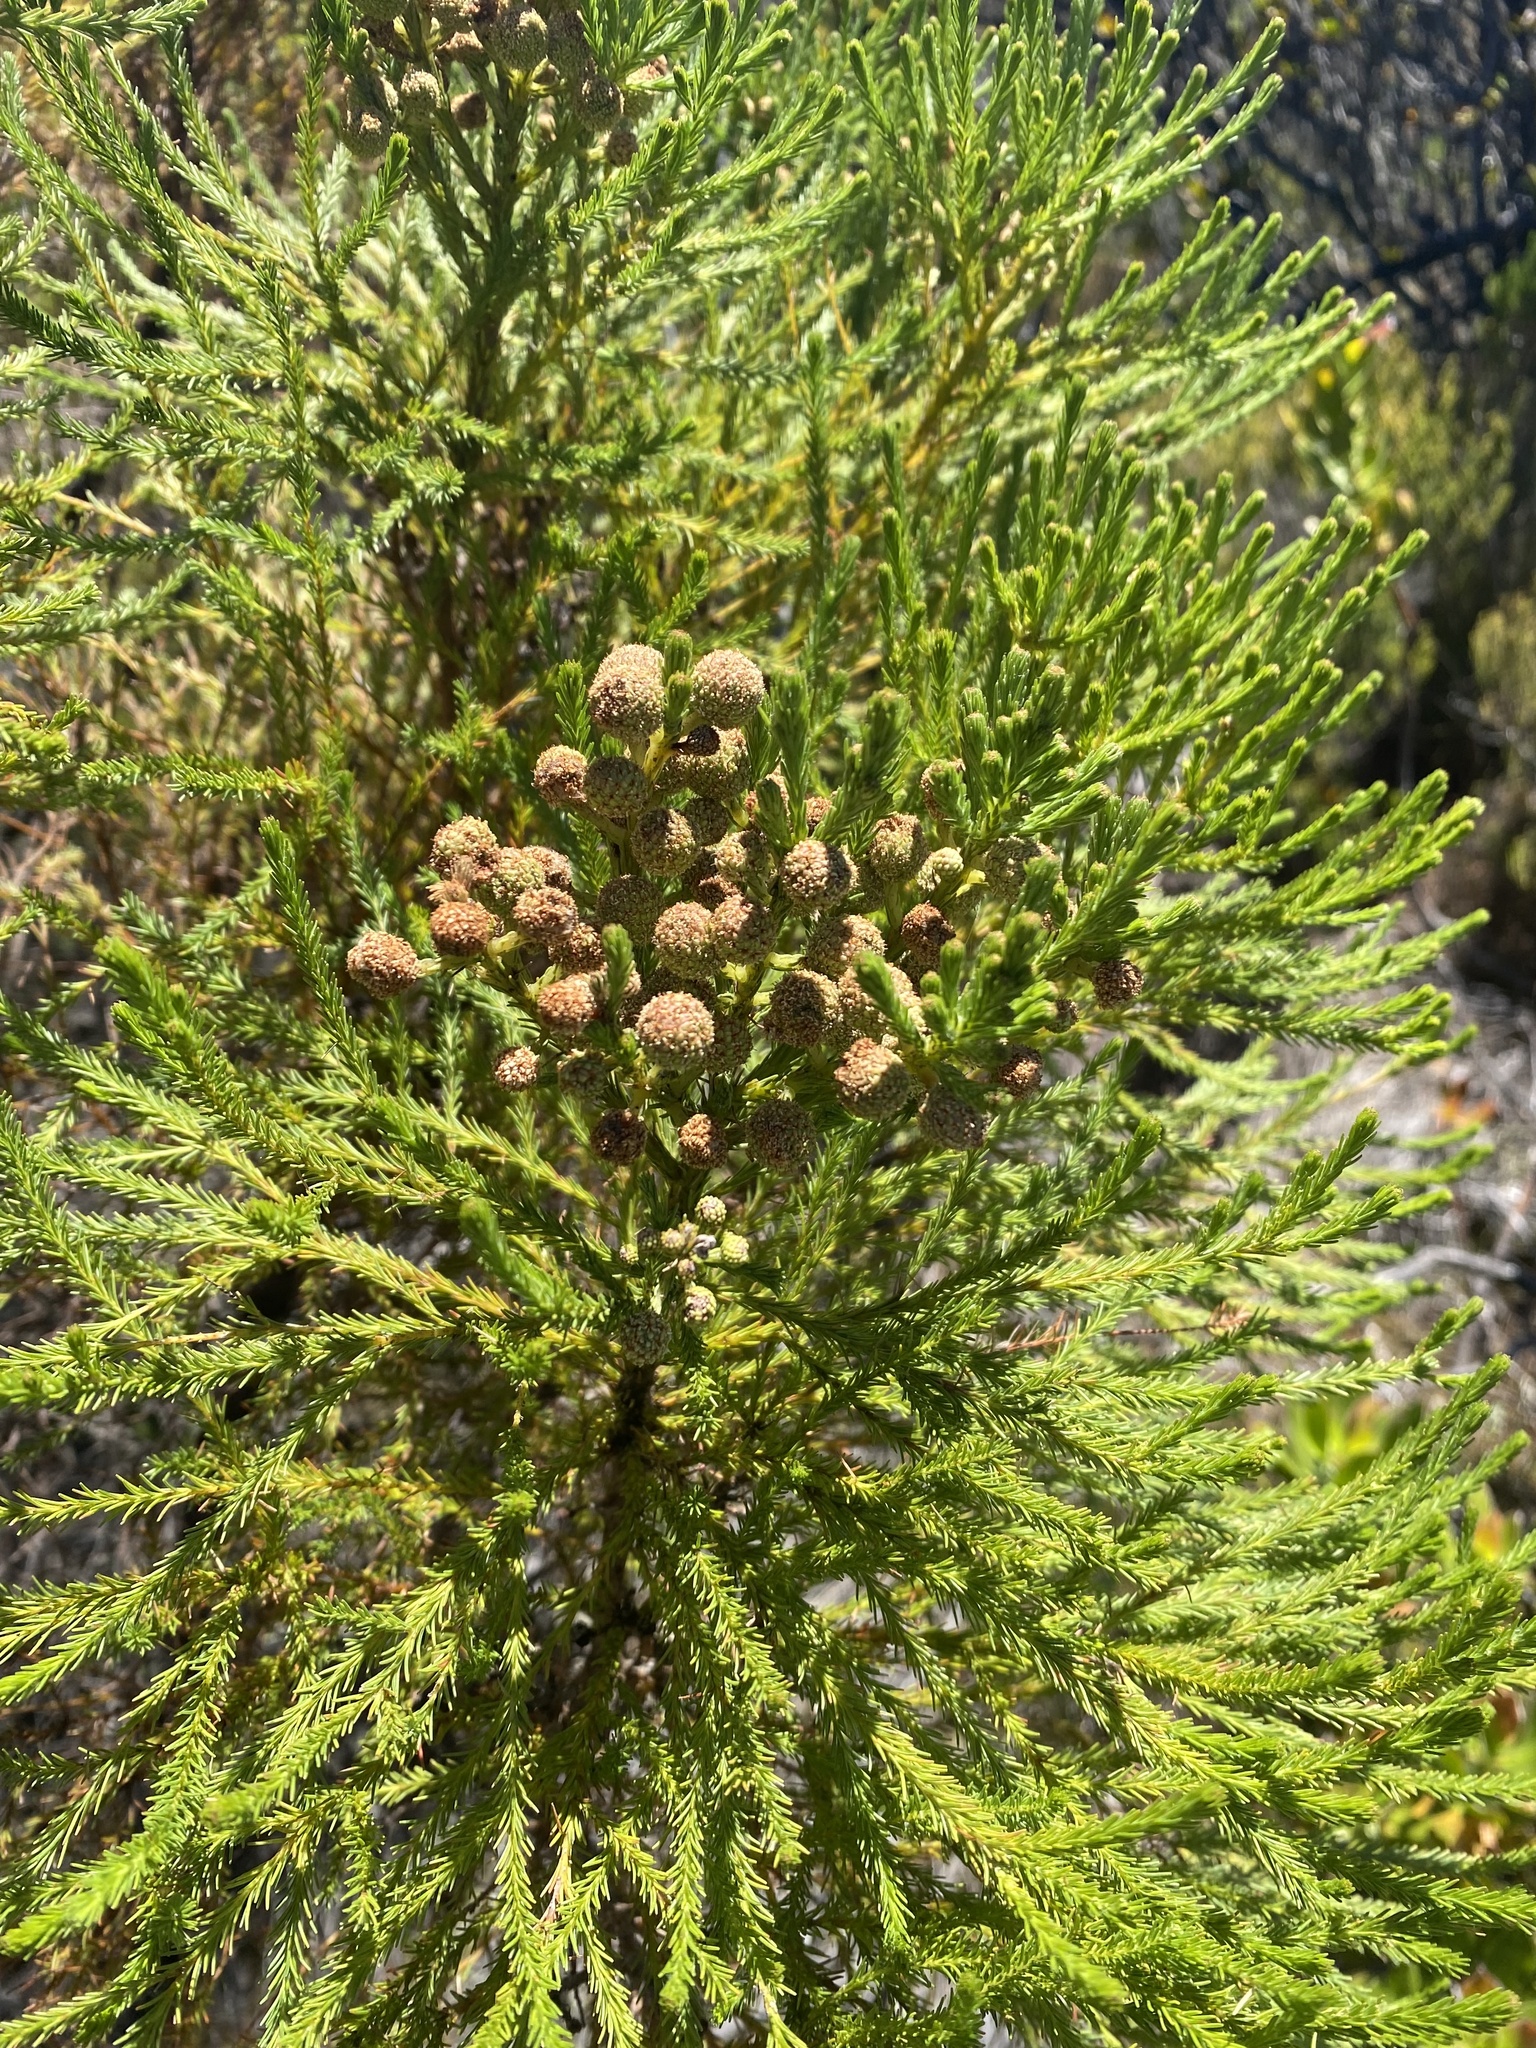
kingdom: Plantae
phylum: Tracheophyta
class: Magnoliopsida
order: Bruniales
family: Bruniaceae
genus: Berzelia
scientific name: Berzelia lanuginosa
